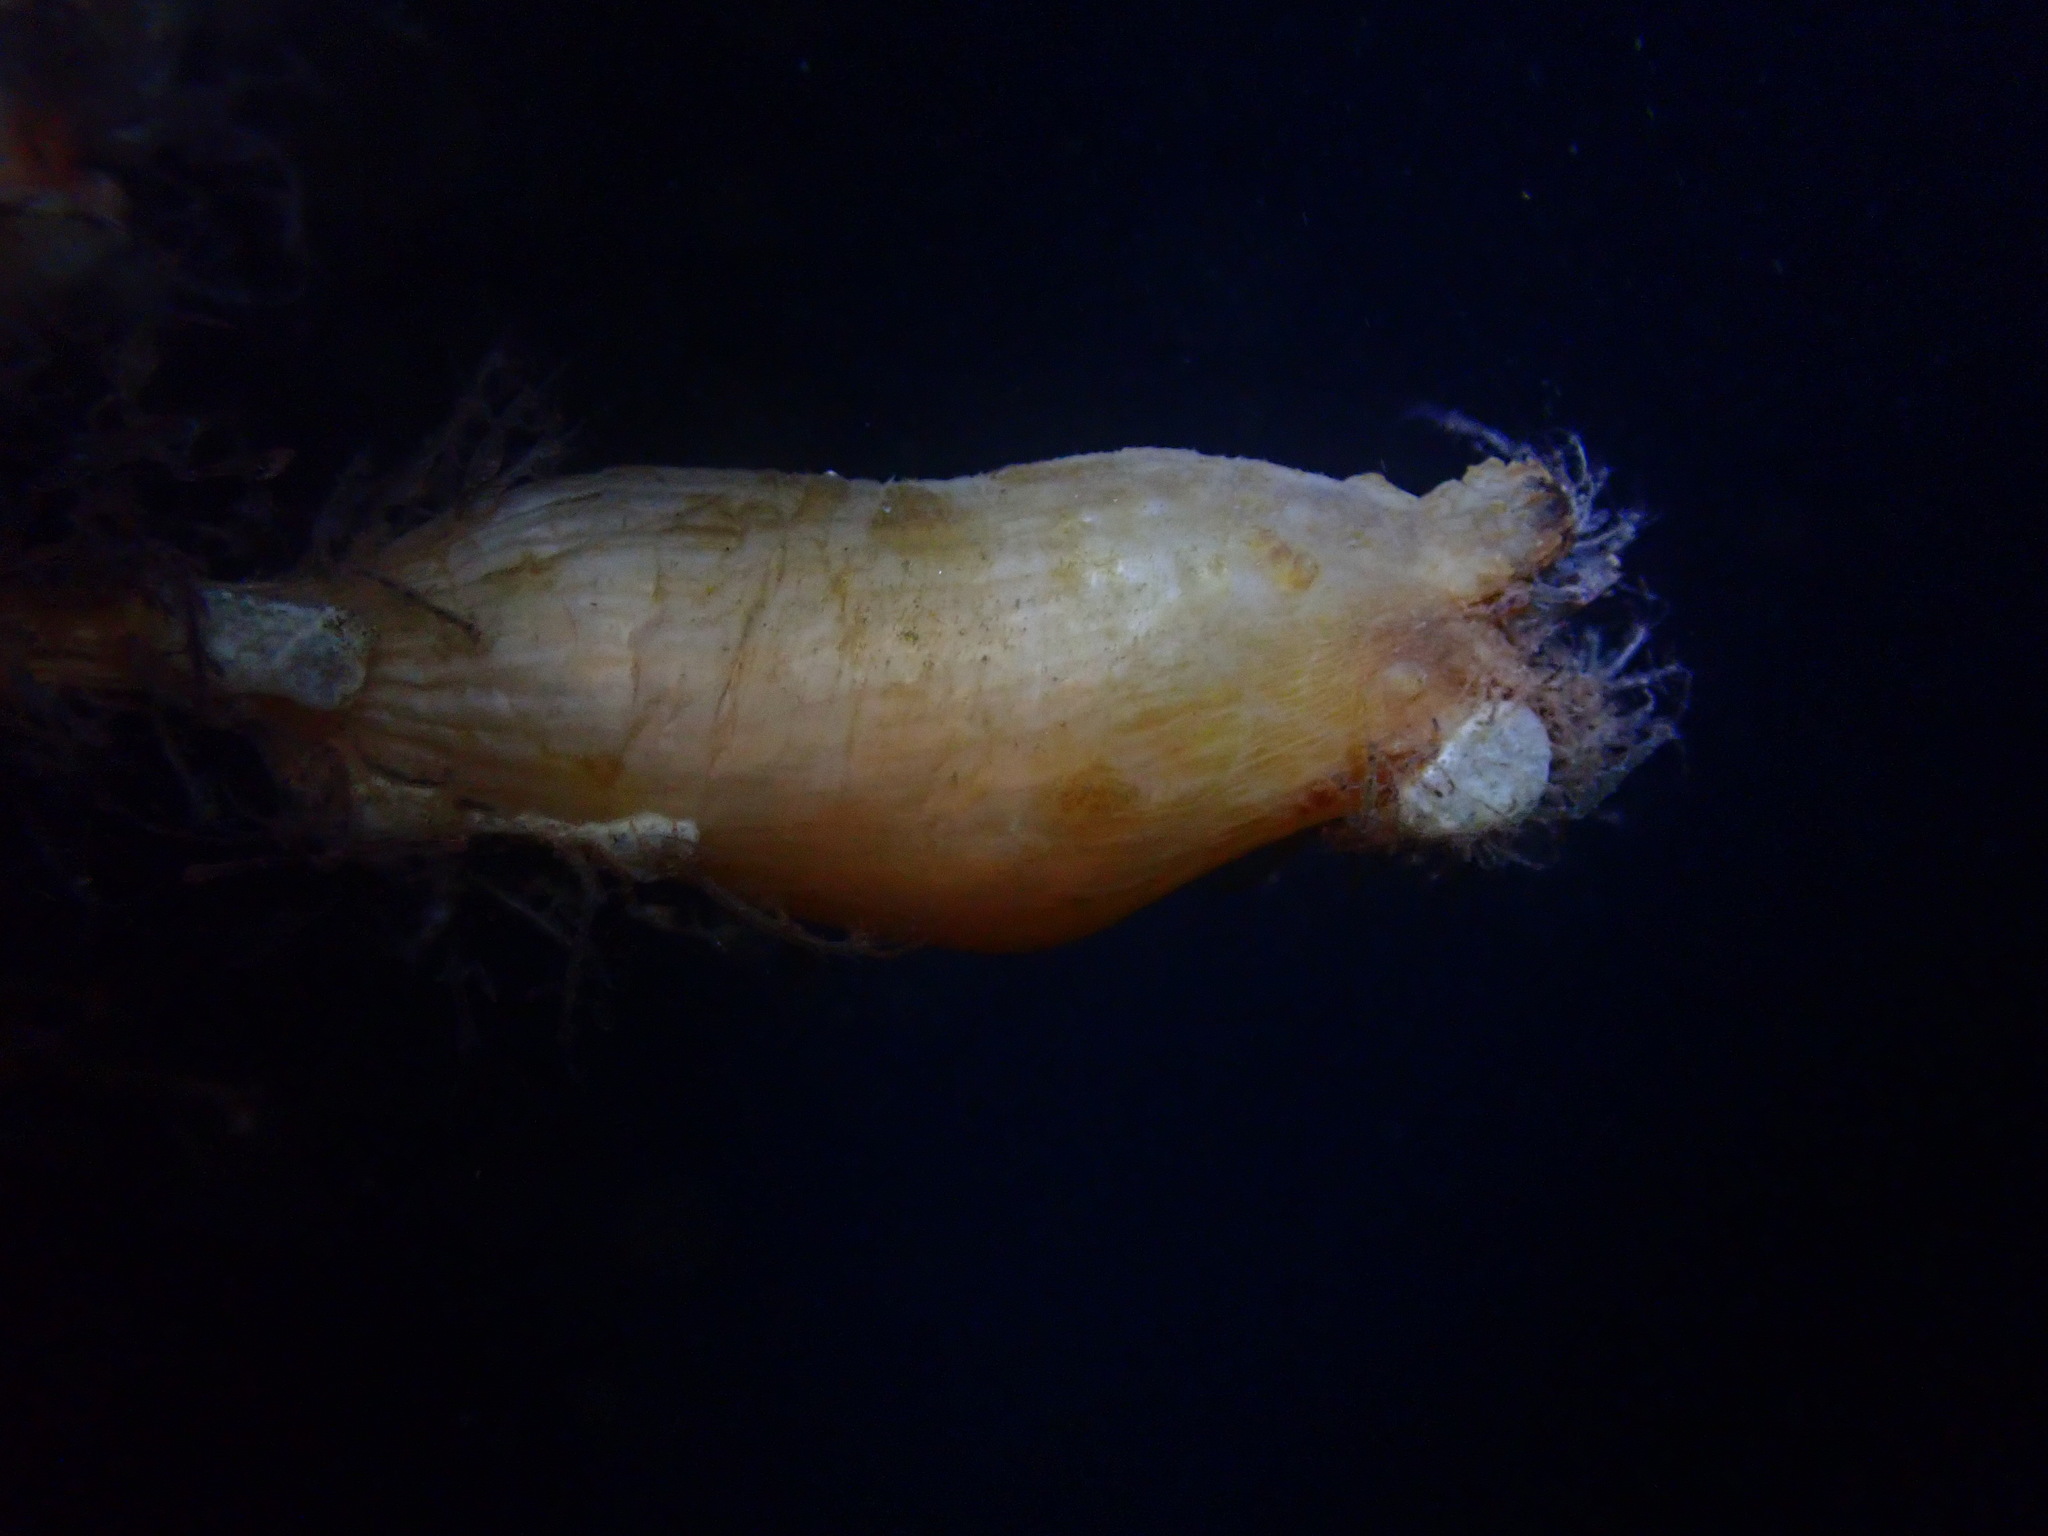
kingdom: Animalia
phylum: Chordata
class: Ascidiacea
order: Stolidobranchia
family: Styelidae
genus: Styela
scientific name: Styela clava
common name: Leathery sea squirt
